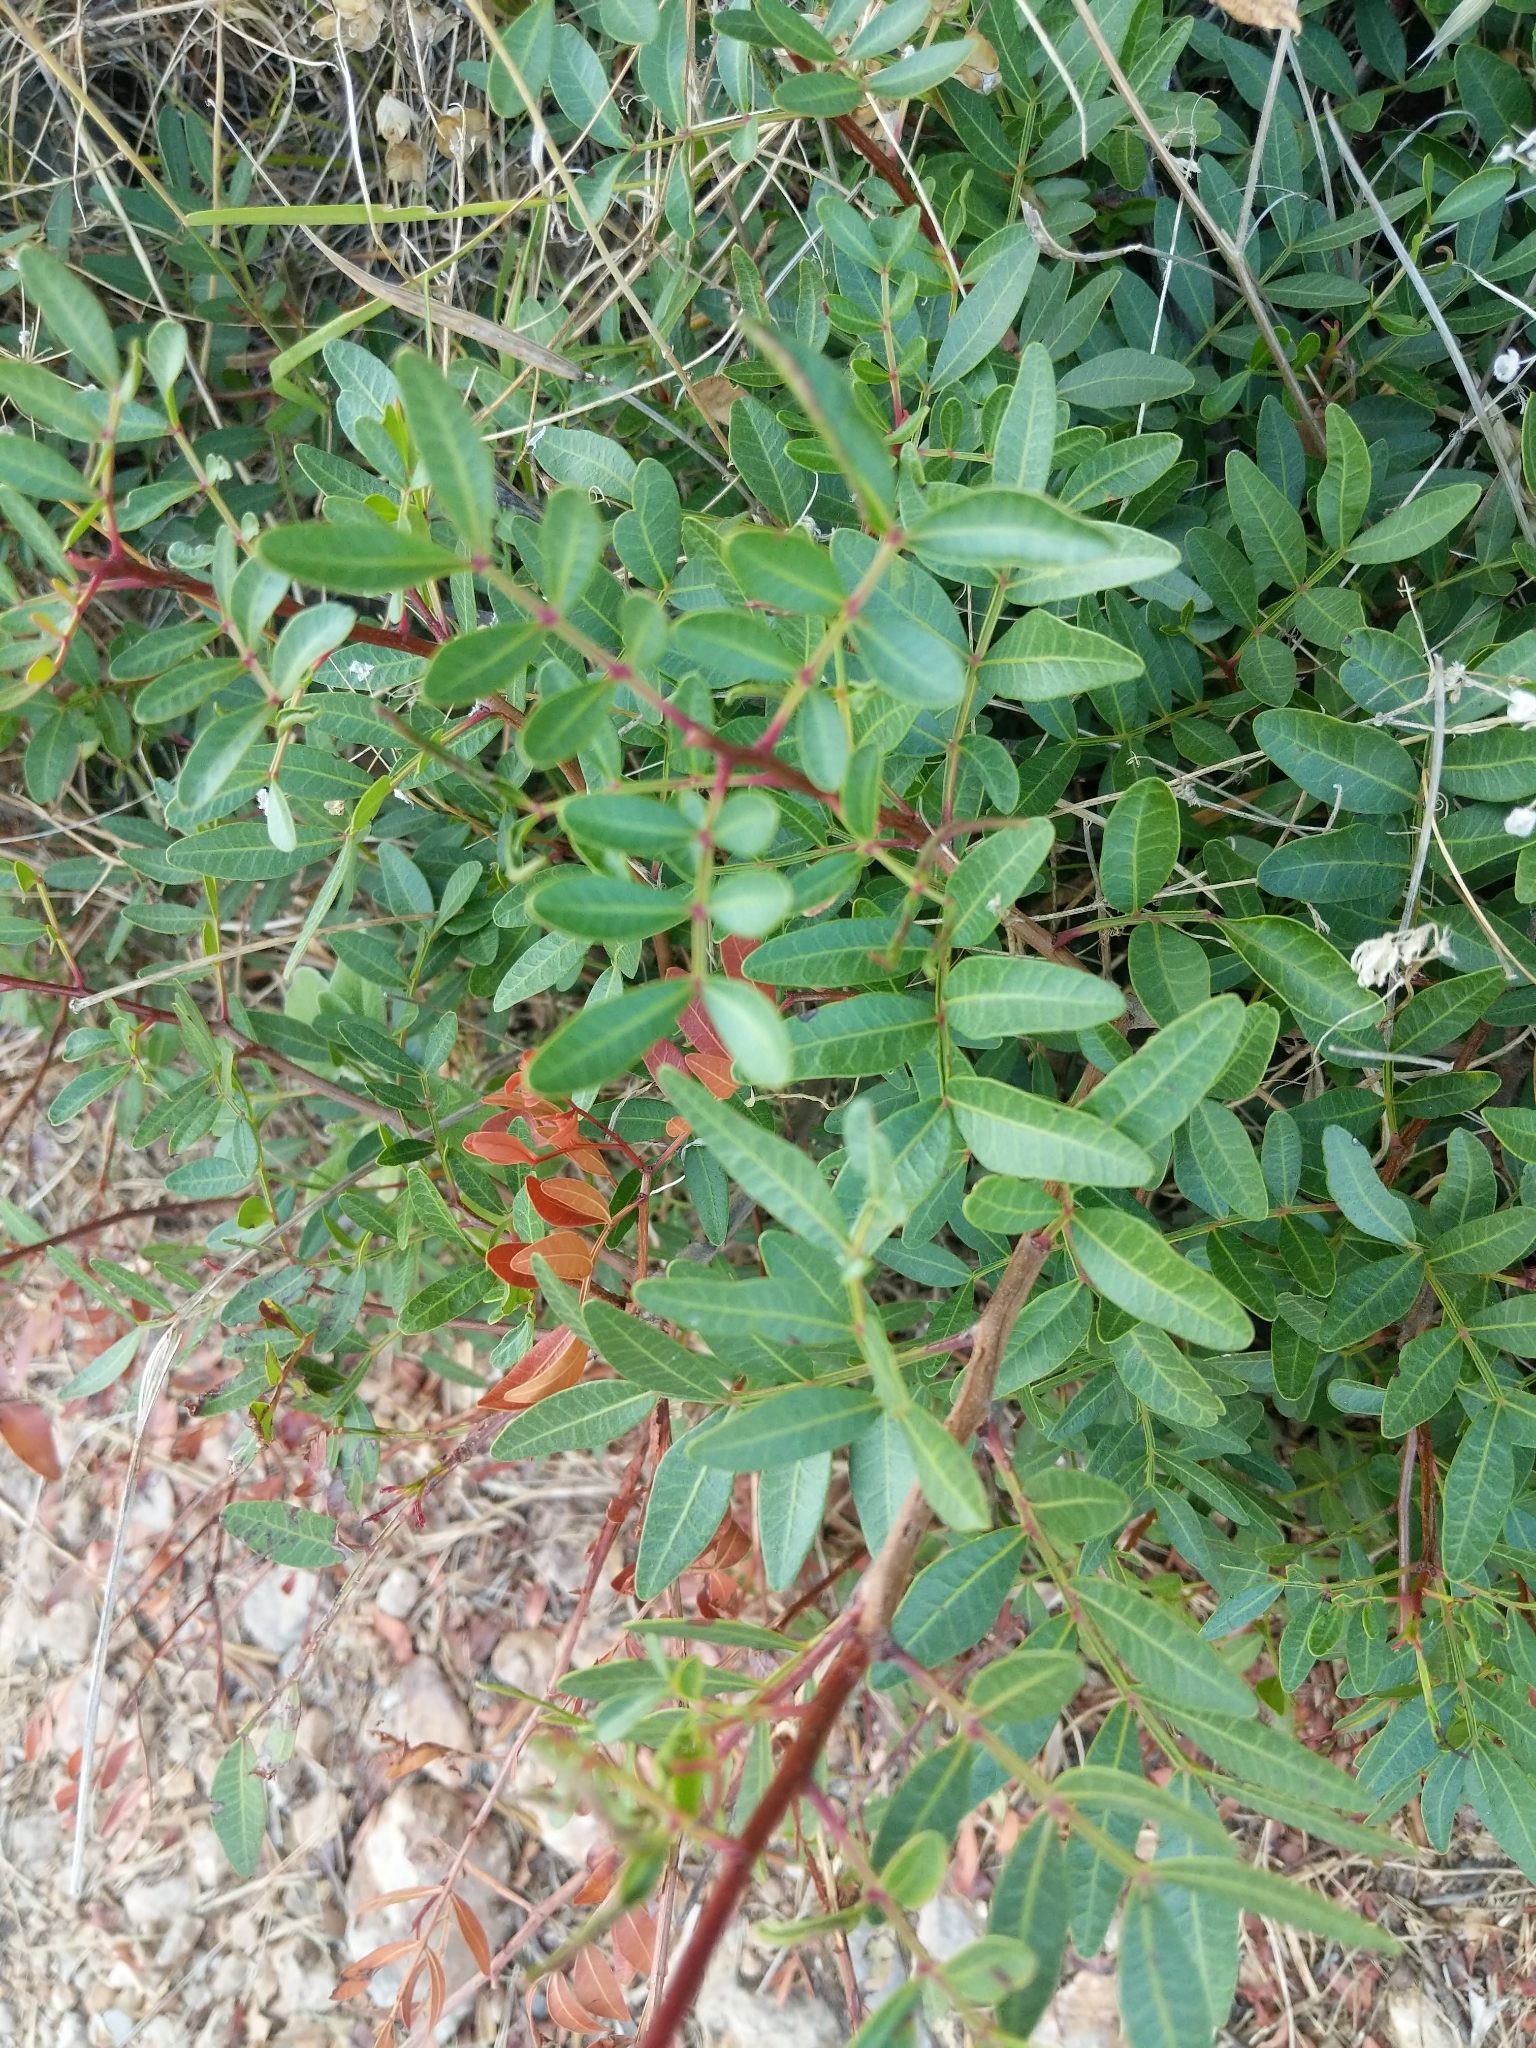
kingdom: Plantae
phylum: Tracheophyta
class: Magnoliopsida
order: Sapindales
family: Anacardiaceae
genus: Pistacia
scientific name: Pistacia lentiscus
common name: Lentisk
